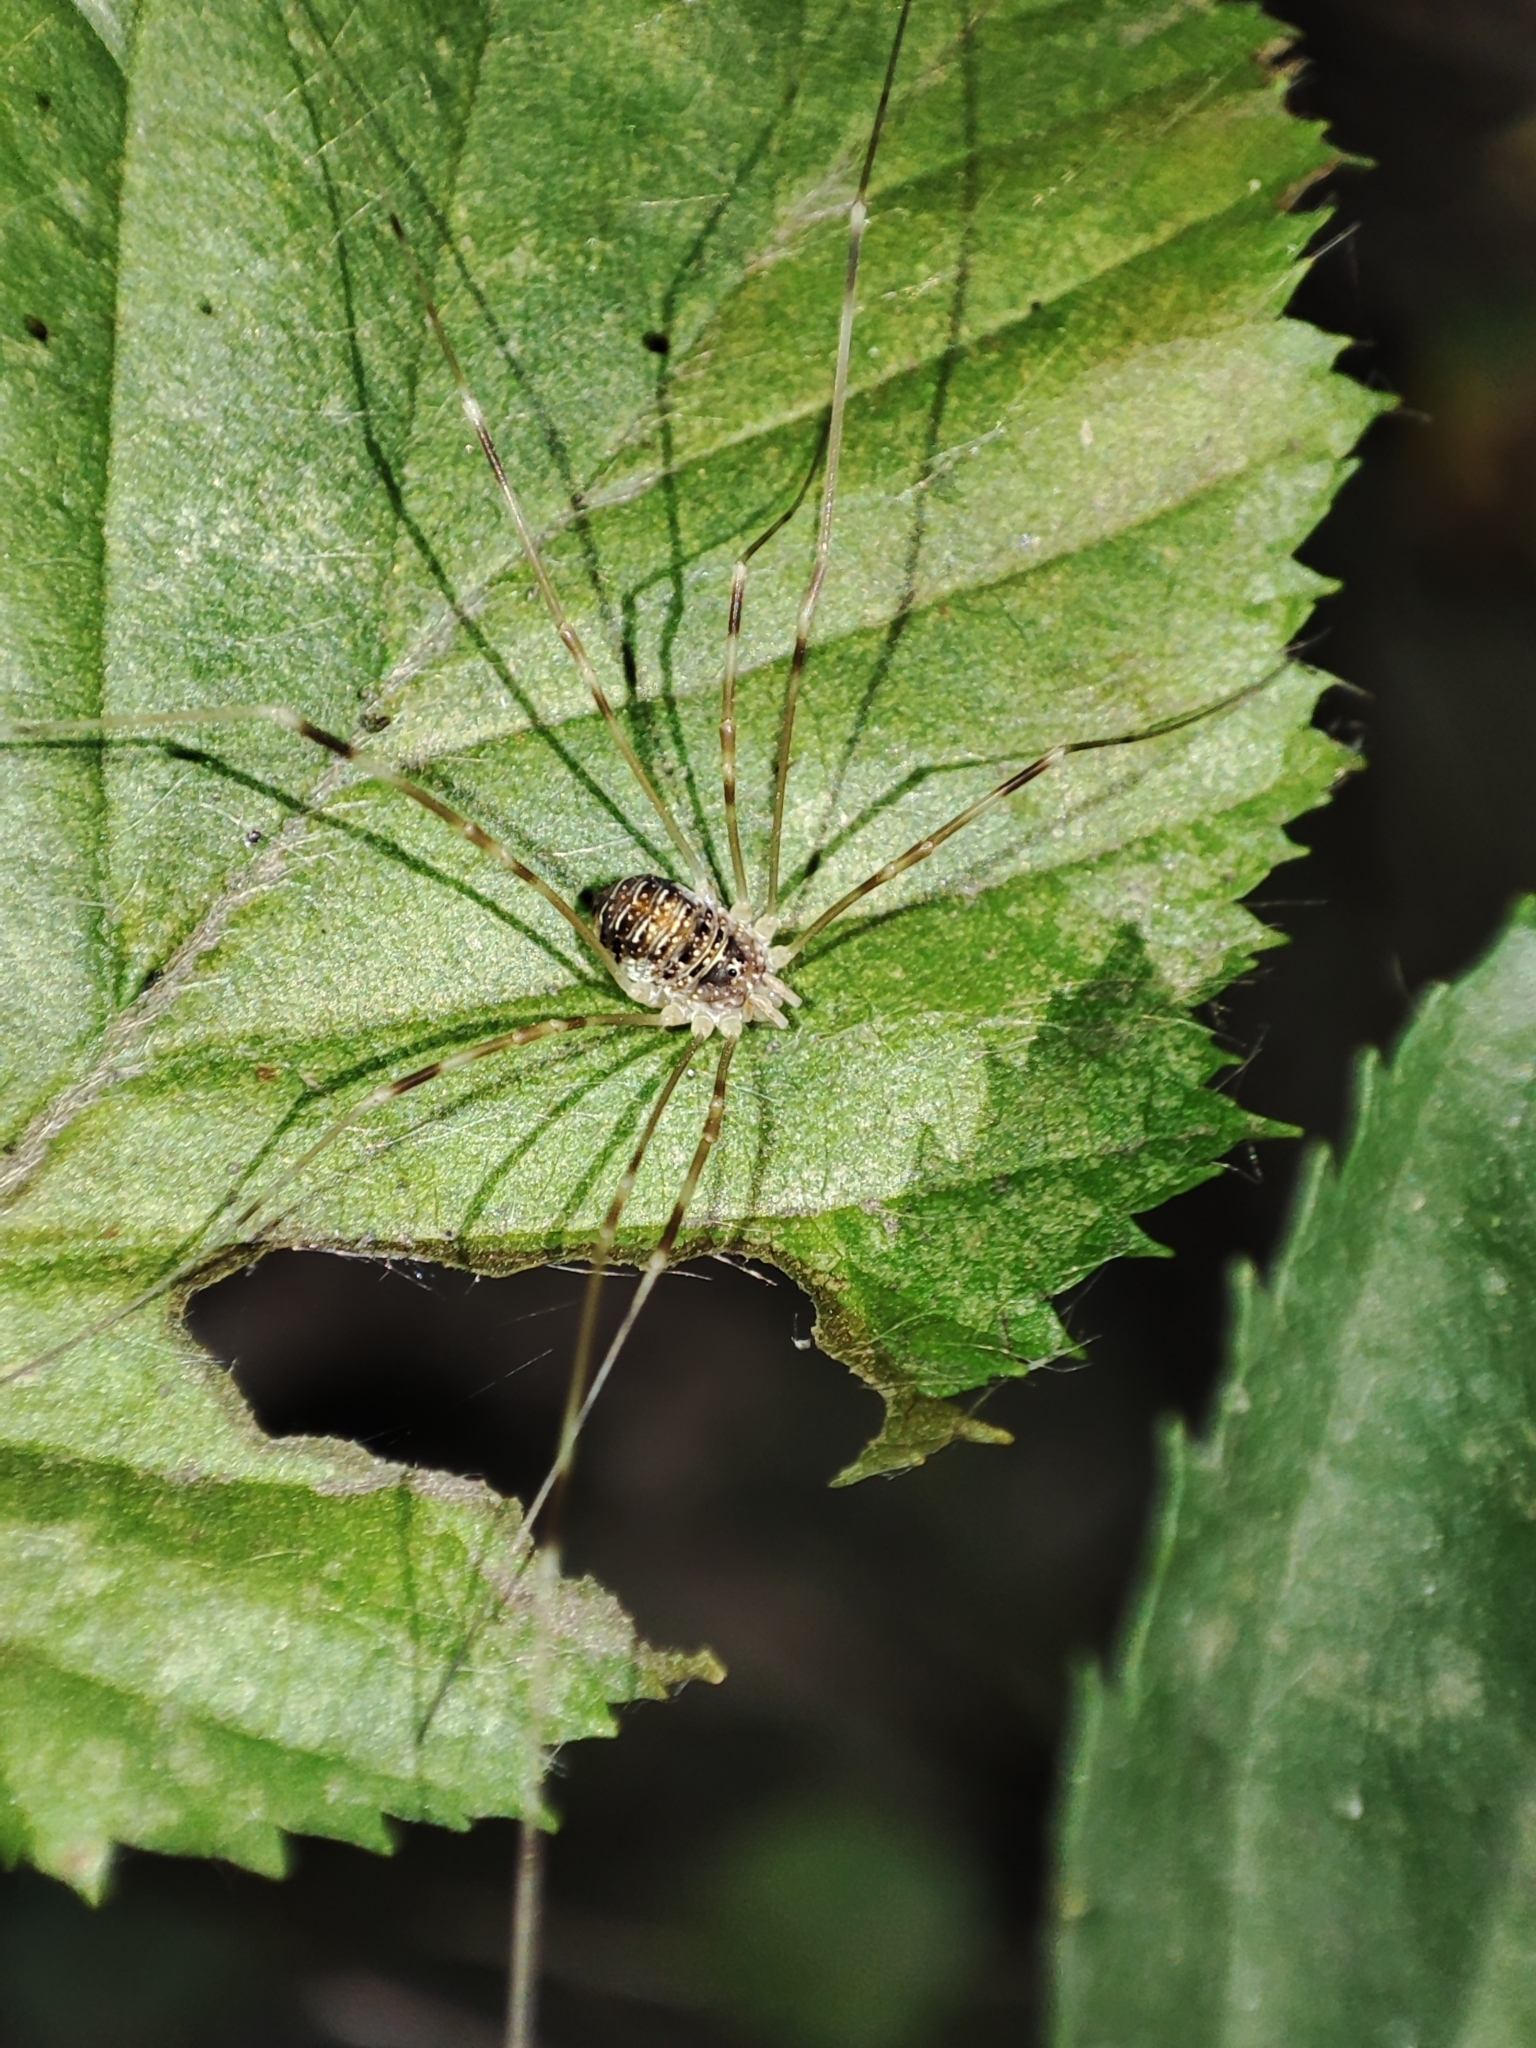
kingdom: Animalia
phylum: Arthropoda
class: Arachnida
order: Opiliones
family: Phalangiidae
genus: Opilio
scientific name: Opilio canestrinii
